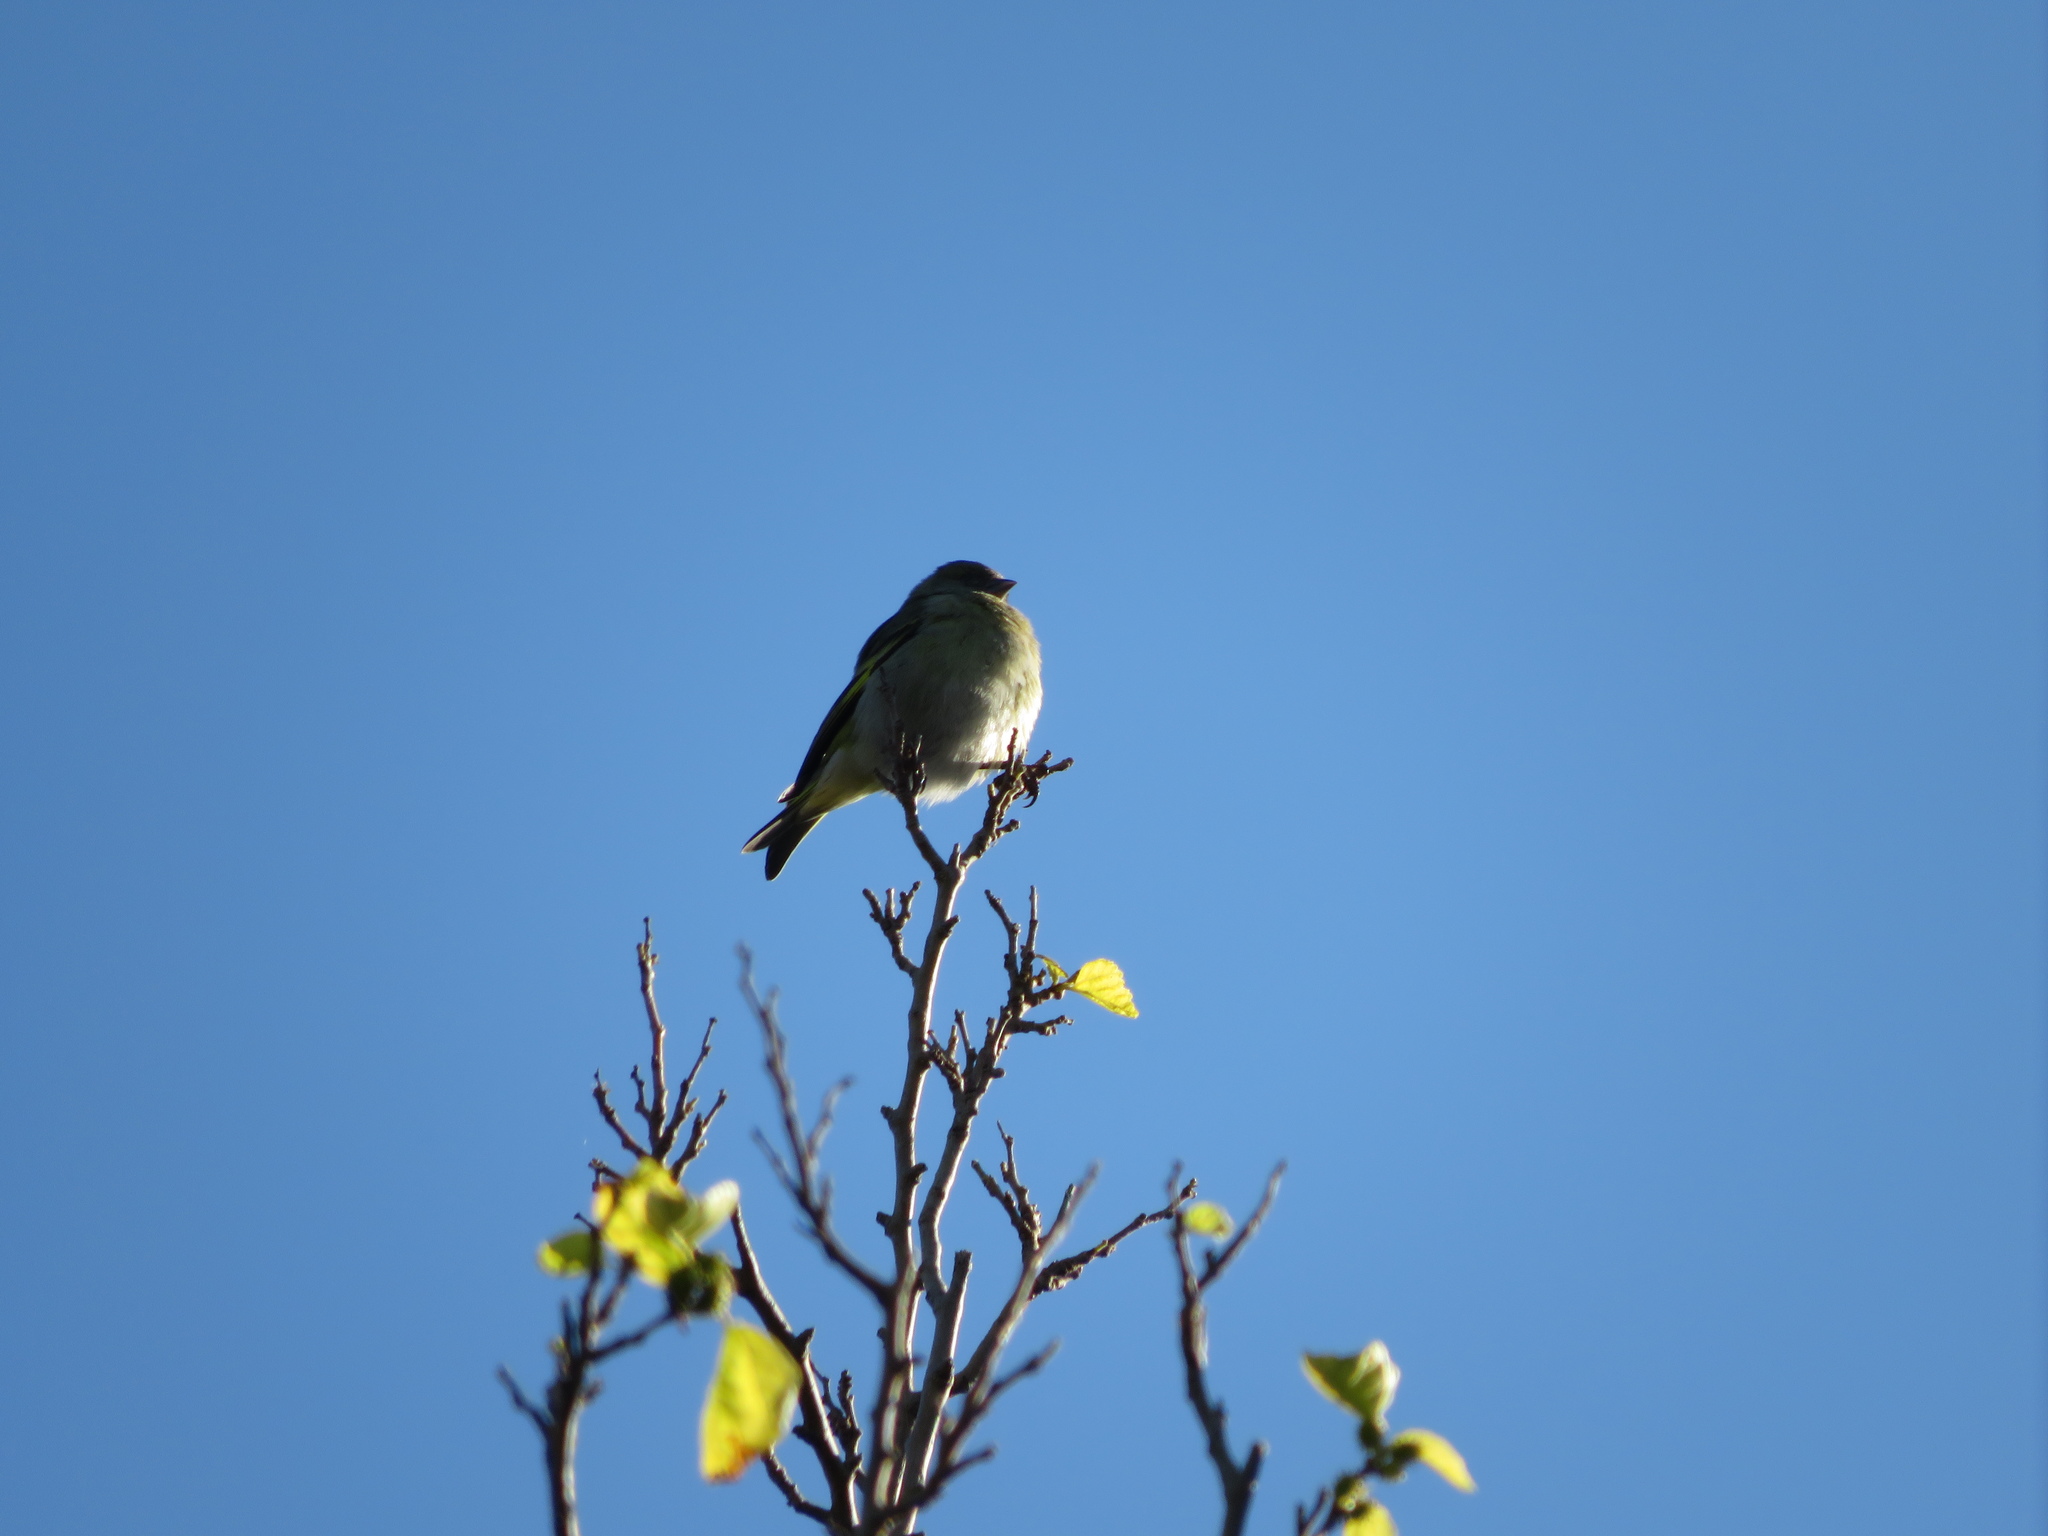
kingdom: Animalia
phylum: Chordata
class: Aves
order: Passeriformes
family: Fringillidae
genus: Spinus
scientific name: Spinus magellanicus
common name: Hooded siskin
